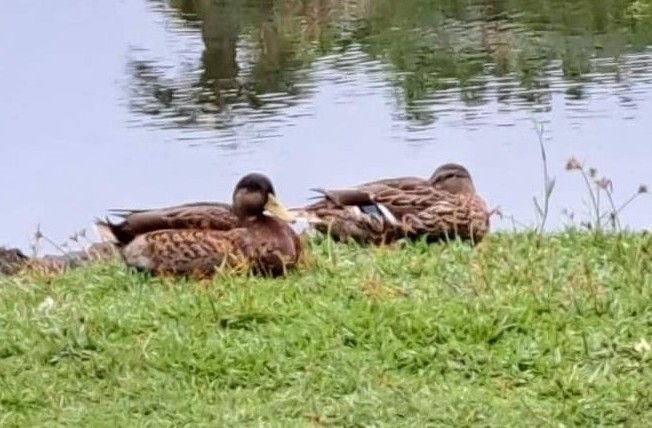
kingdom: Animalia
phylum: Chordata
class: Aves
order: Anseriformes
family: Anatidae
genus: Anas
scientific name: Anas
